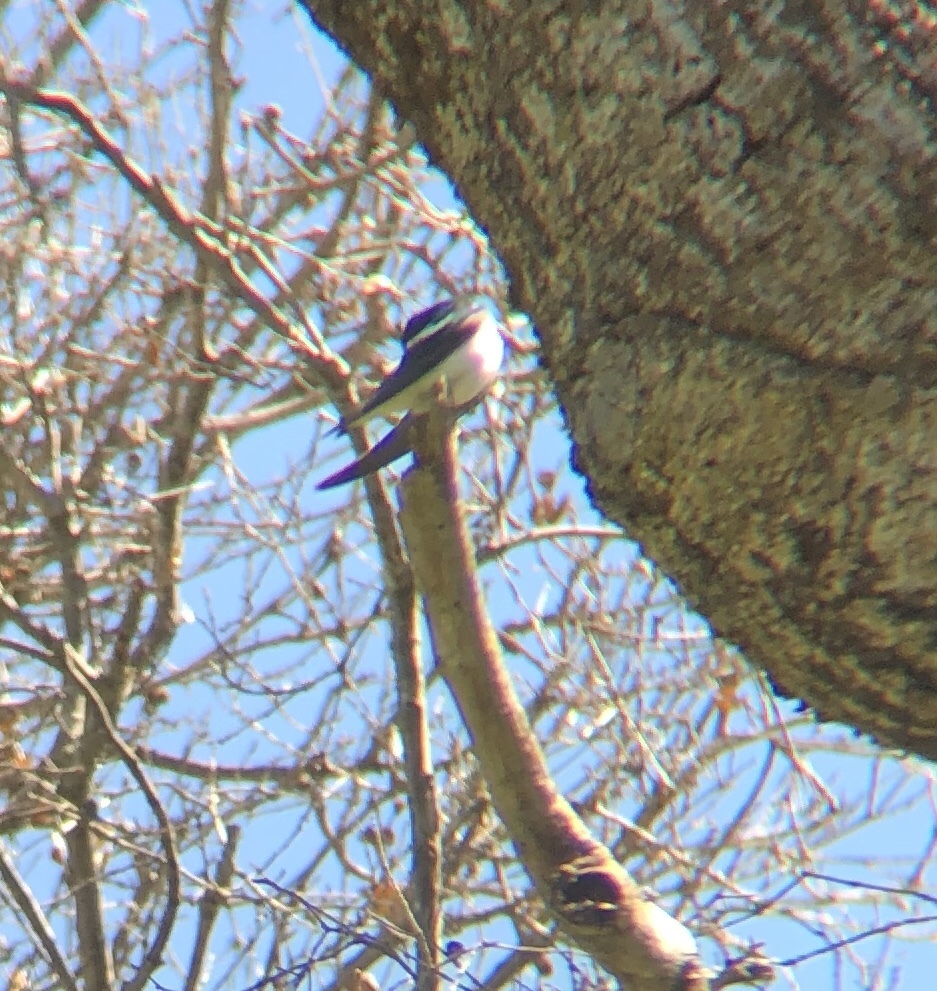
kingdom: Animalia
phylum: Chordata
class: Aves
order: Passeriformes
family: Hirundinidae
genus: Tachycineta
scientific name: Tachycineta thalassina
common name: Violet-green swallow
